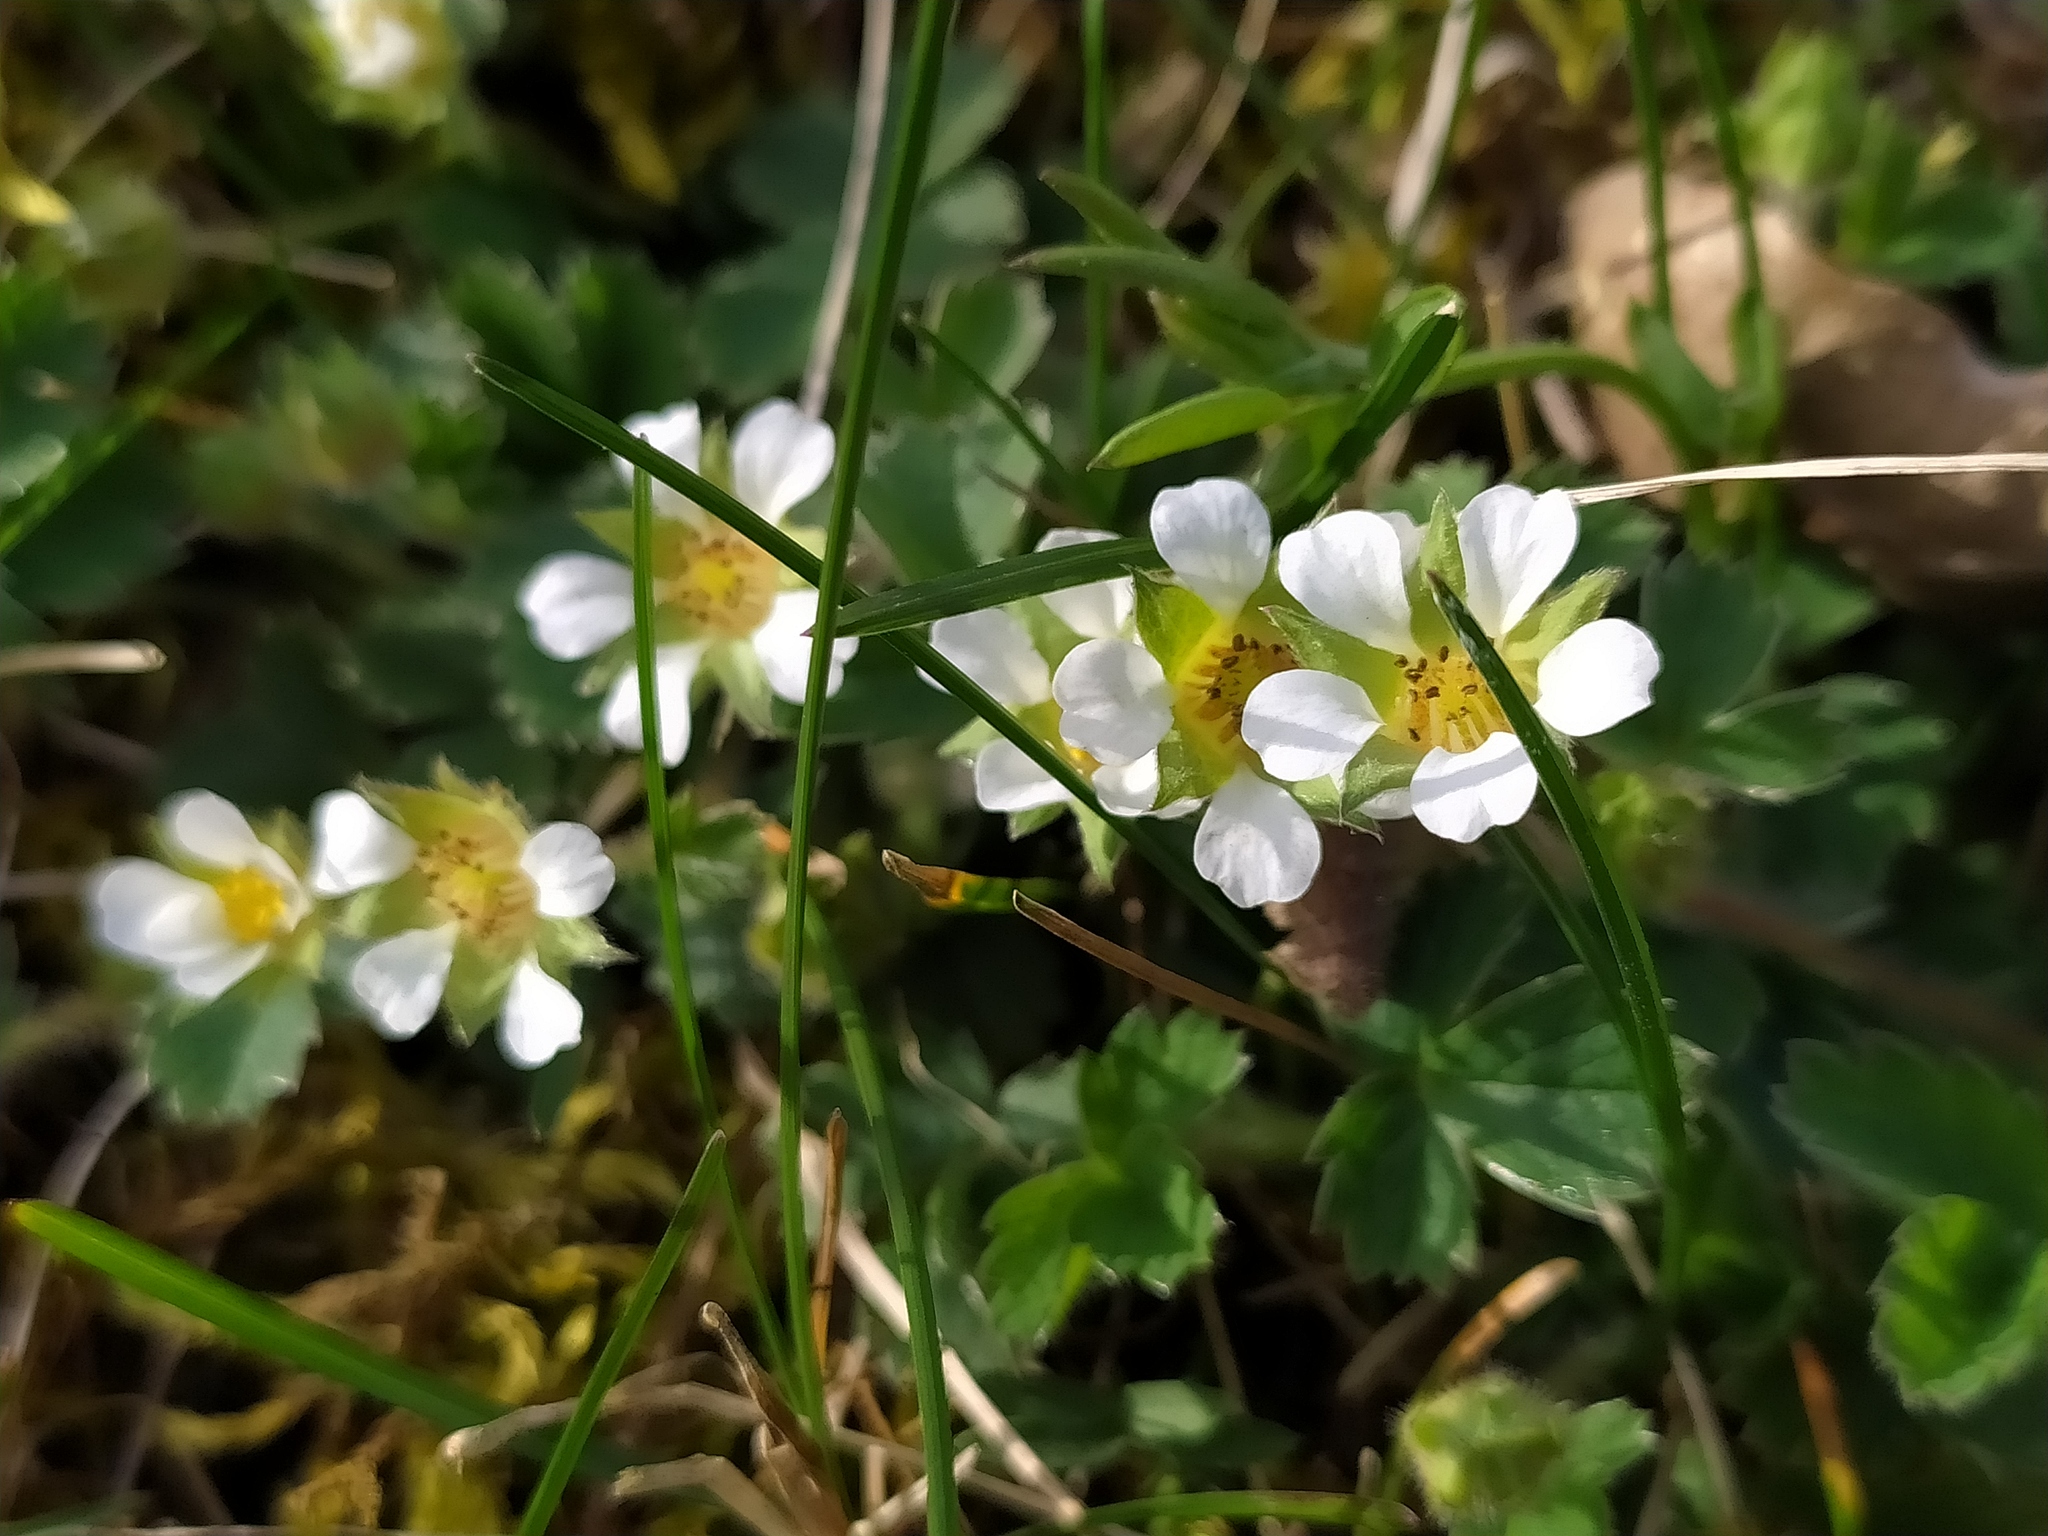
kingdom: Plantae
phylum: Tracheophyta
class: Magnoliopsida
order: Rosales
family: Rosaceae
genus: Potentilla
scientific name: Potentilla sterilis
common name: Barren strawberry
